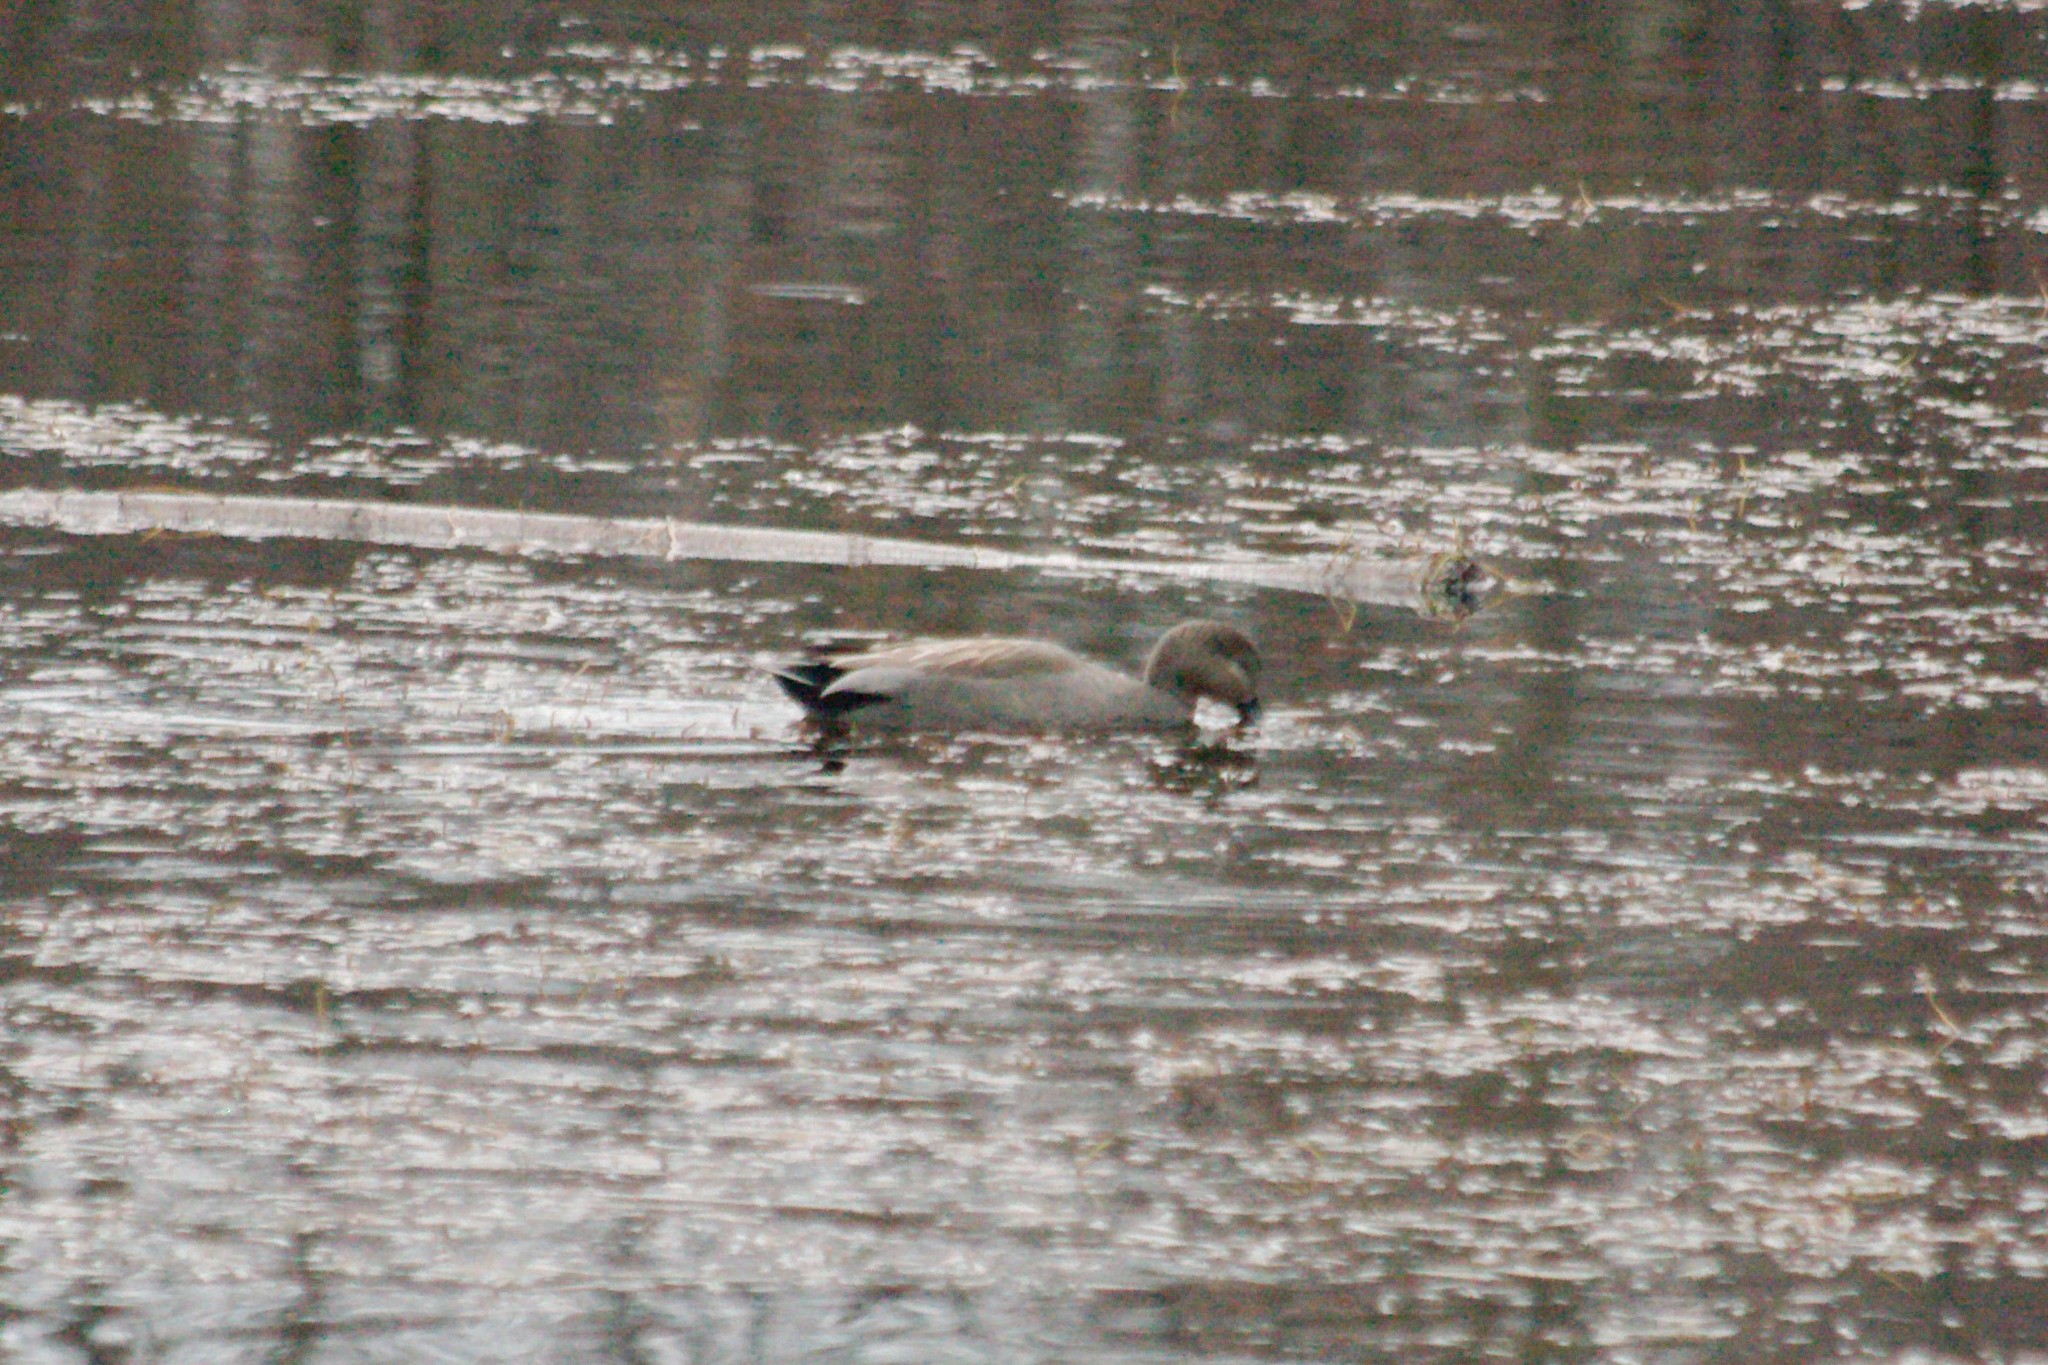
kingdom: Animalia
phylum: Chordata
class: Aves
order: Anseriformes
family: Anatidae
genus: Mareca
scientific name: Mareca strepera
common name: Gadwall
